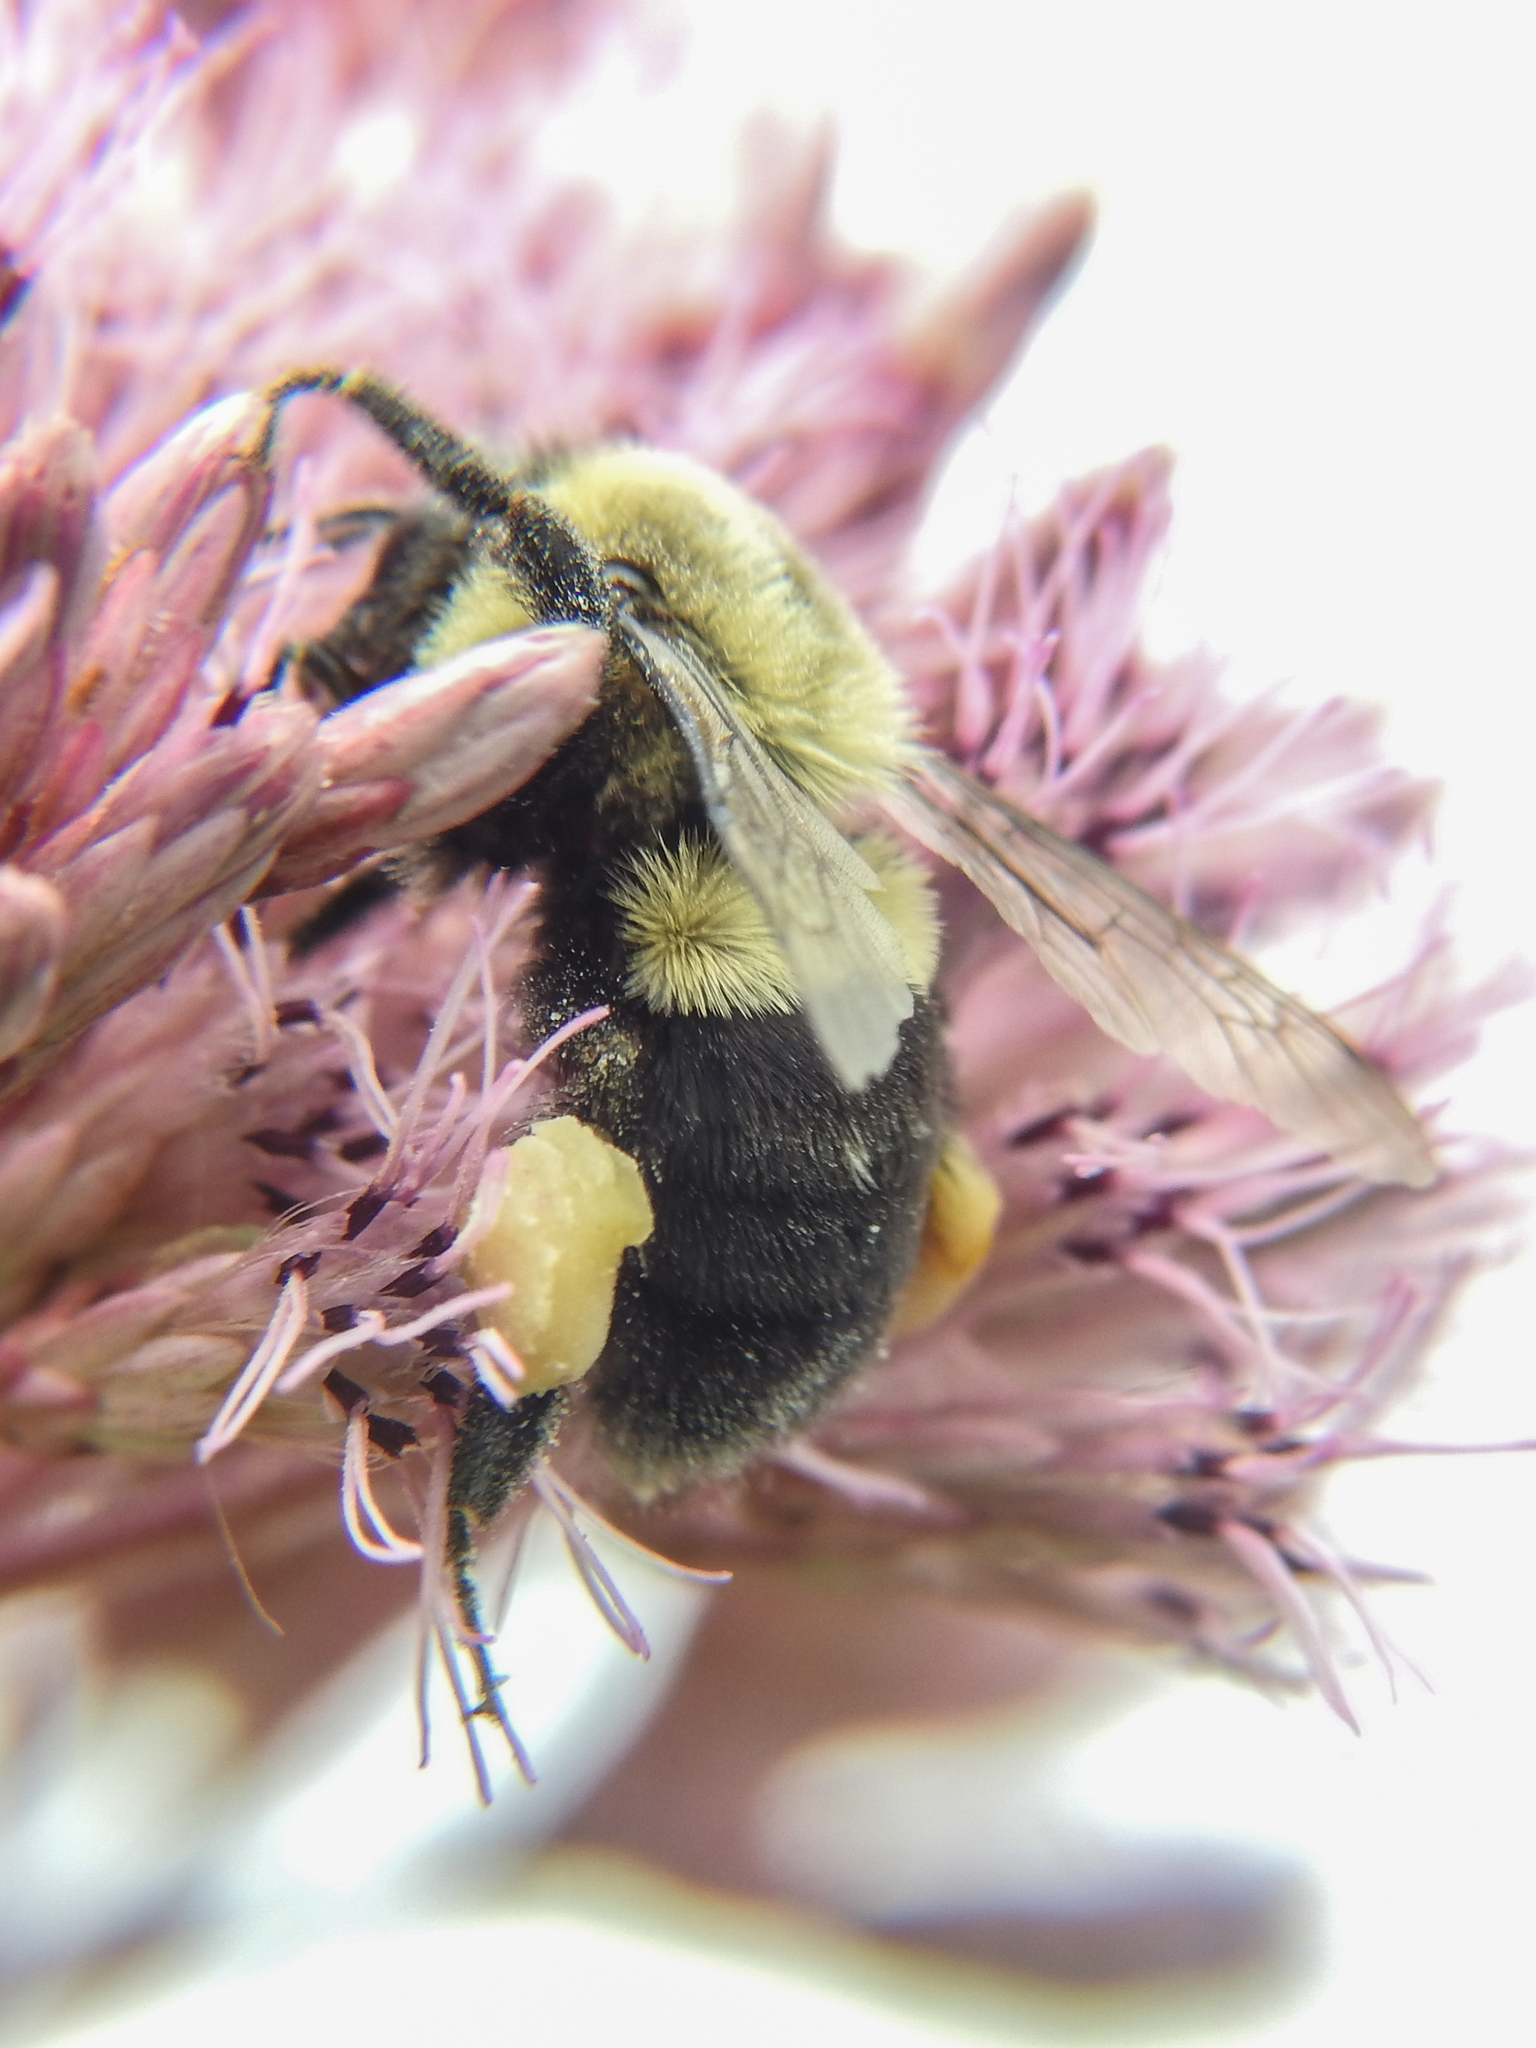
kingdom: Animalia
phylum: Arthropoda
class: Insecta
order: Hymenoptera
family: Apidae
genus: Bombus
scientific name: Bombus impatiens
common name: Common eastern bumble bee
